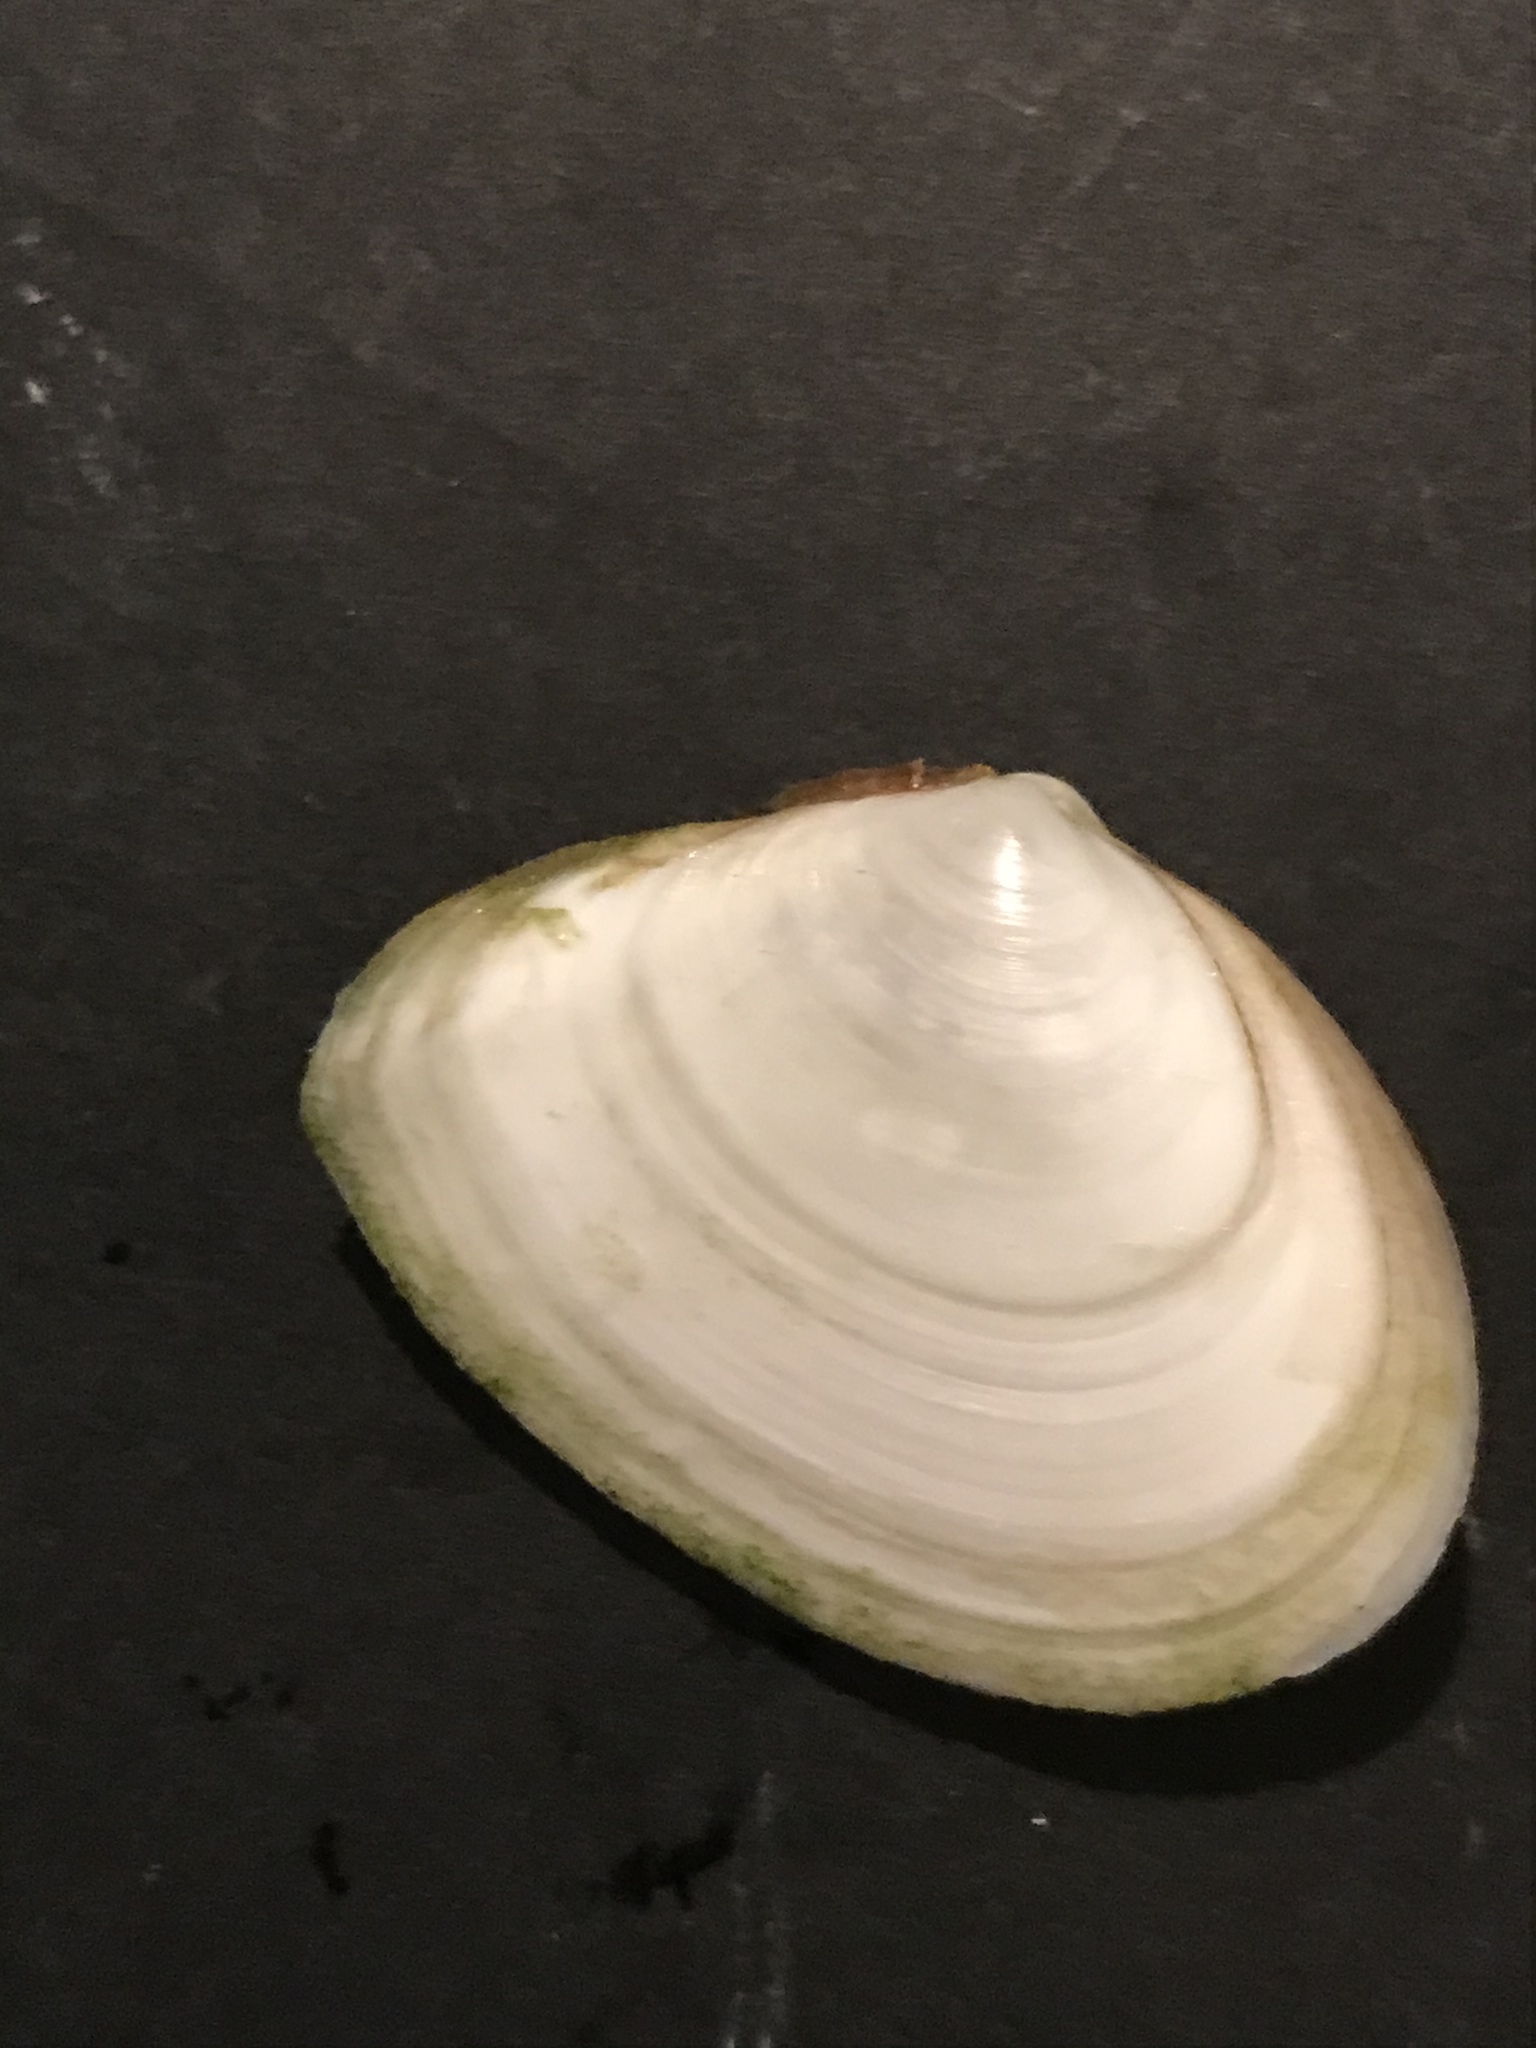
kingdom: Animalia
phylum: Mollusca
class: Bivalvia
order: Cardiida
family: Tellinidae
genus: Macoma
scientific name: Macoma nasuta
